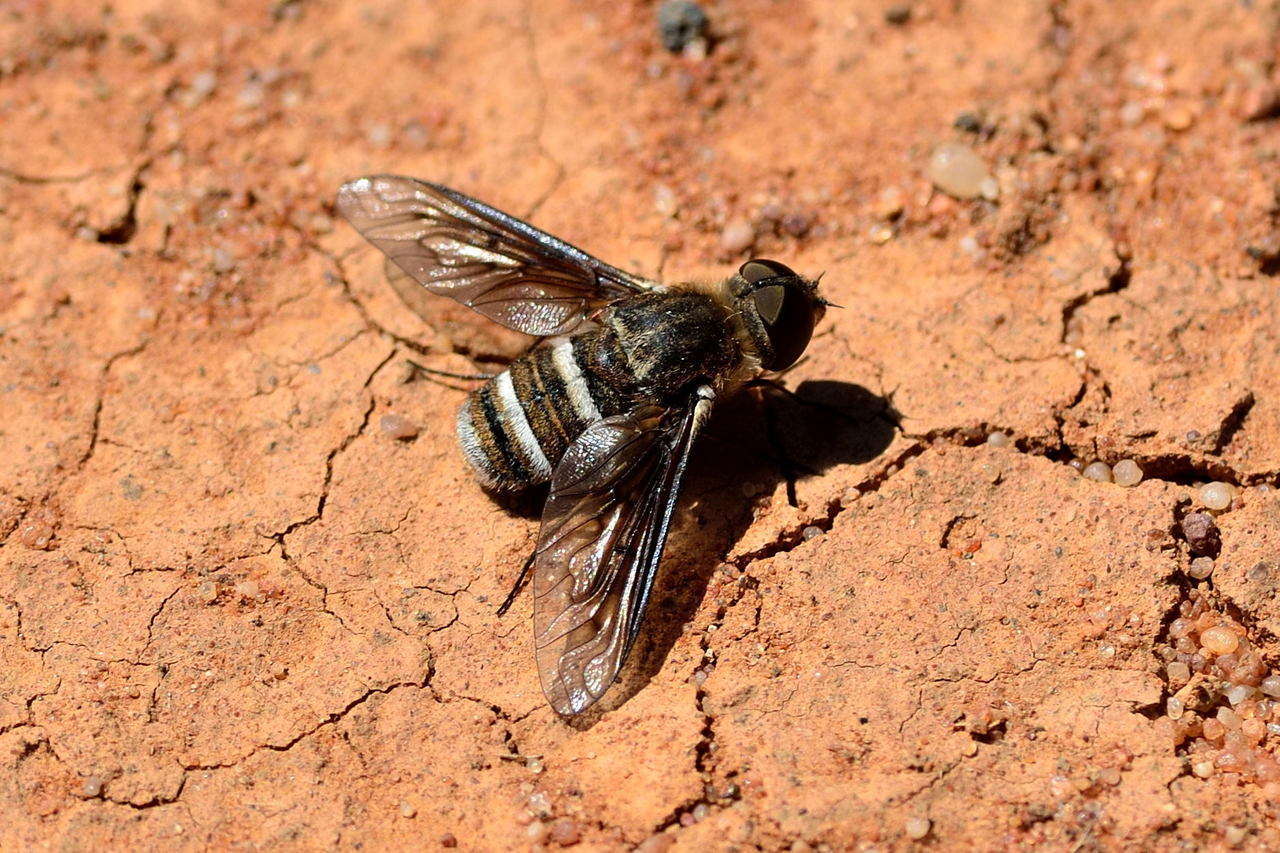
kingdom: Animalia
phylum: Arthropoda
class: Insecta
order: Diptera
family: Bombyliidae
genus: Villa
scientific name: Villa
